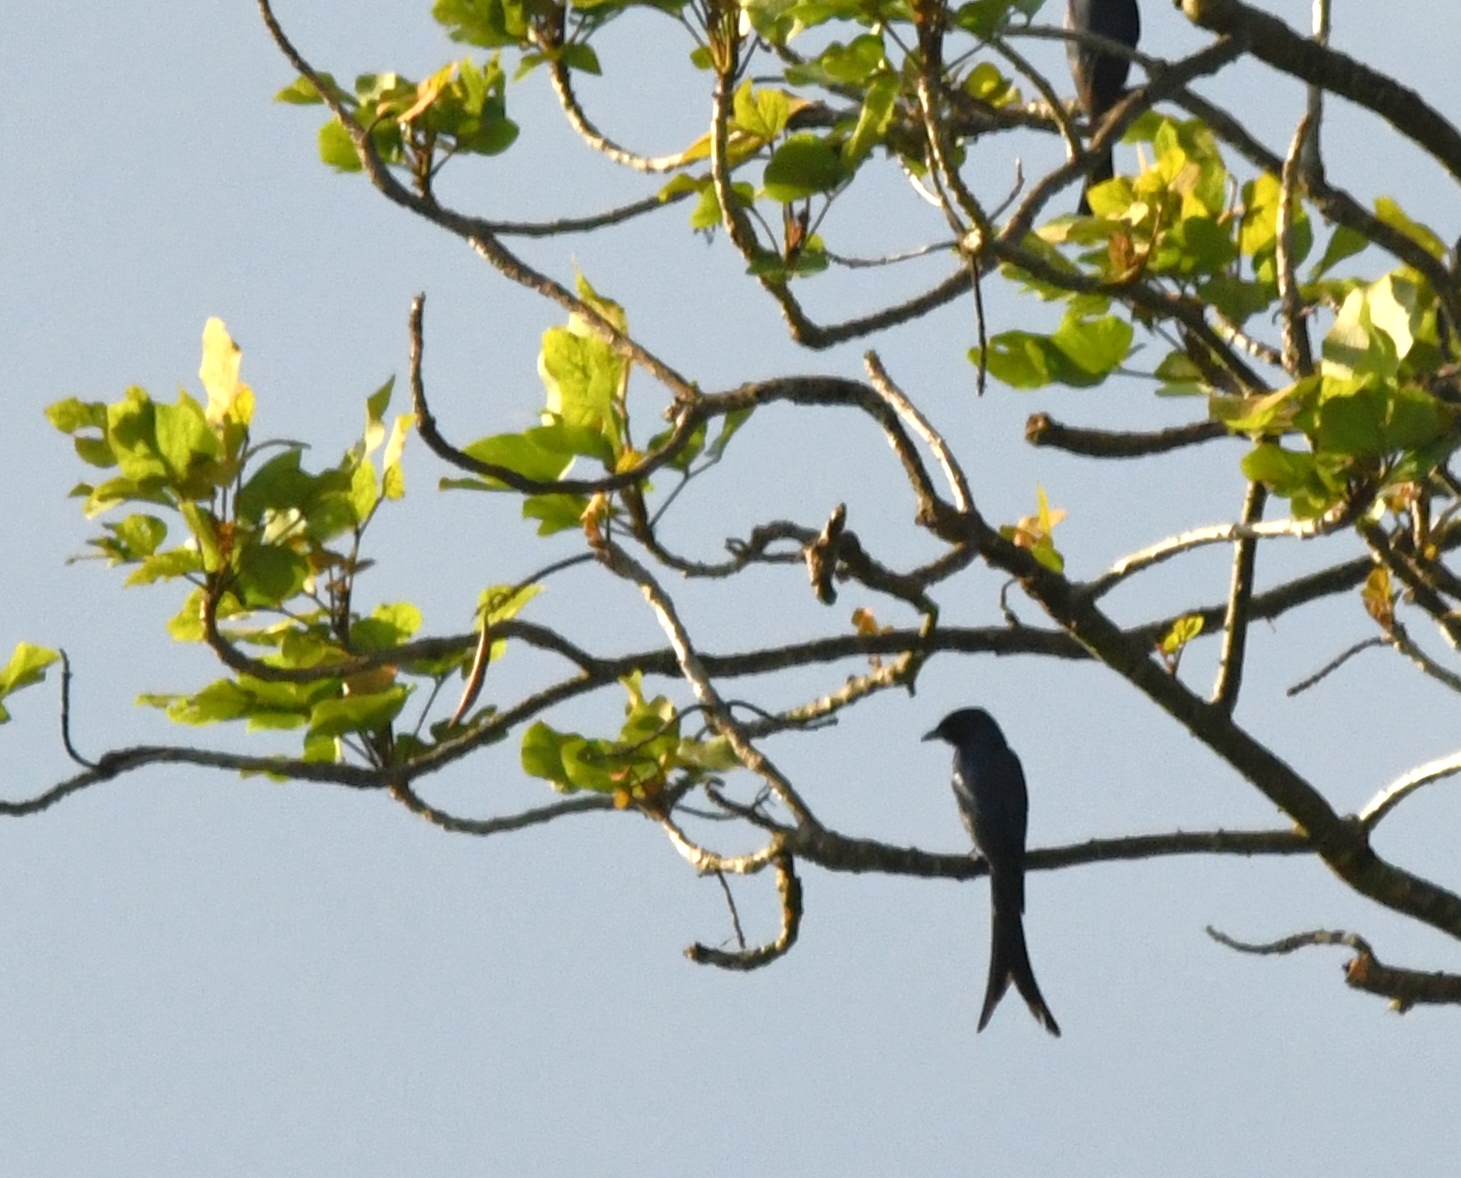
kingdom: Animalia
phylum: Chordata
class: Aves
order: Passeriformes
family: Dicruridae
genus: Dicrurus
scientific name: Dicrurus leucophaeus
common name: Ashy drongo
